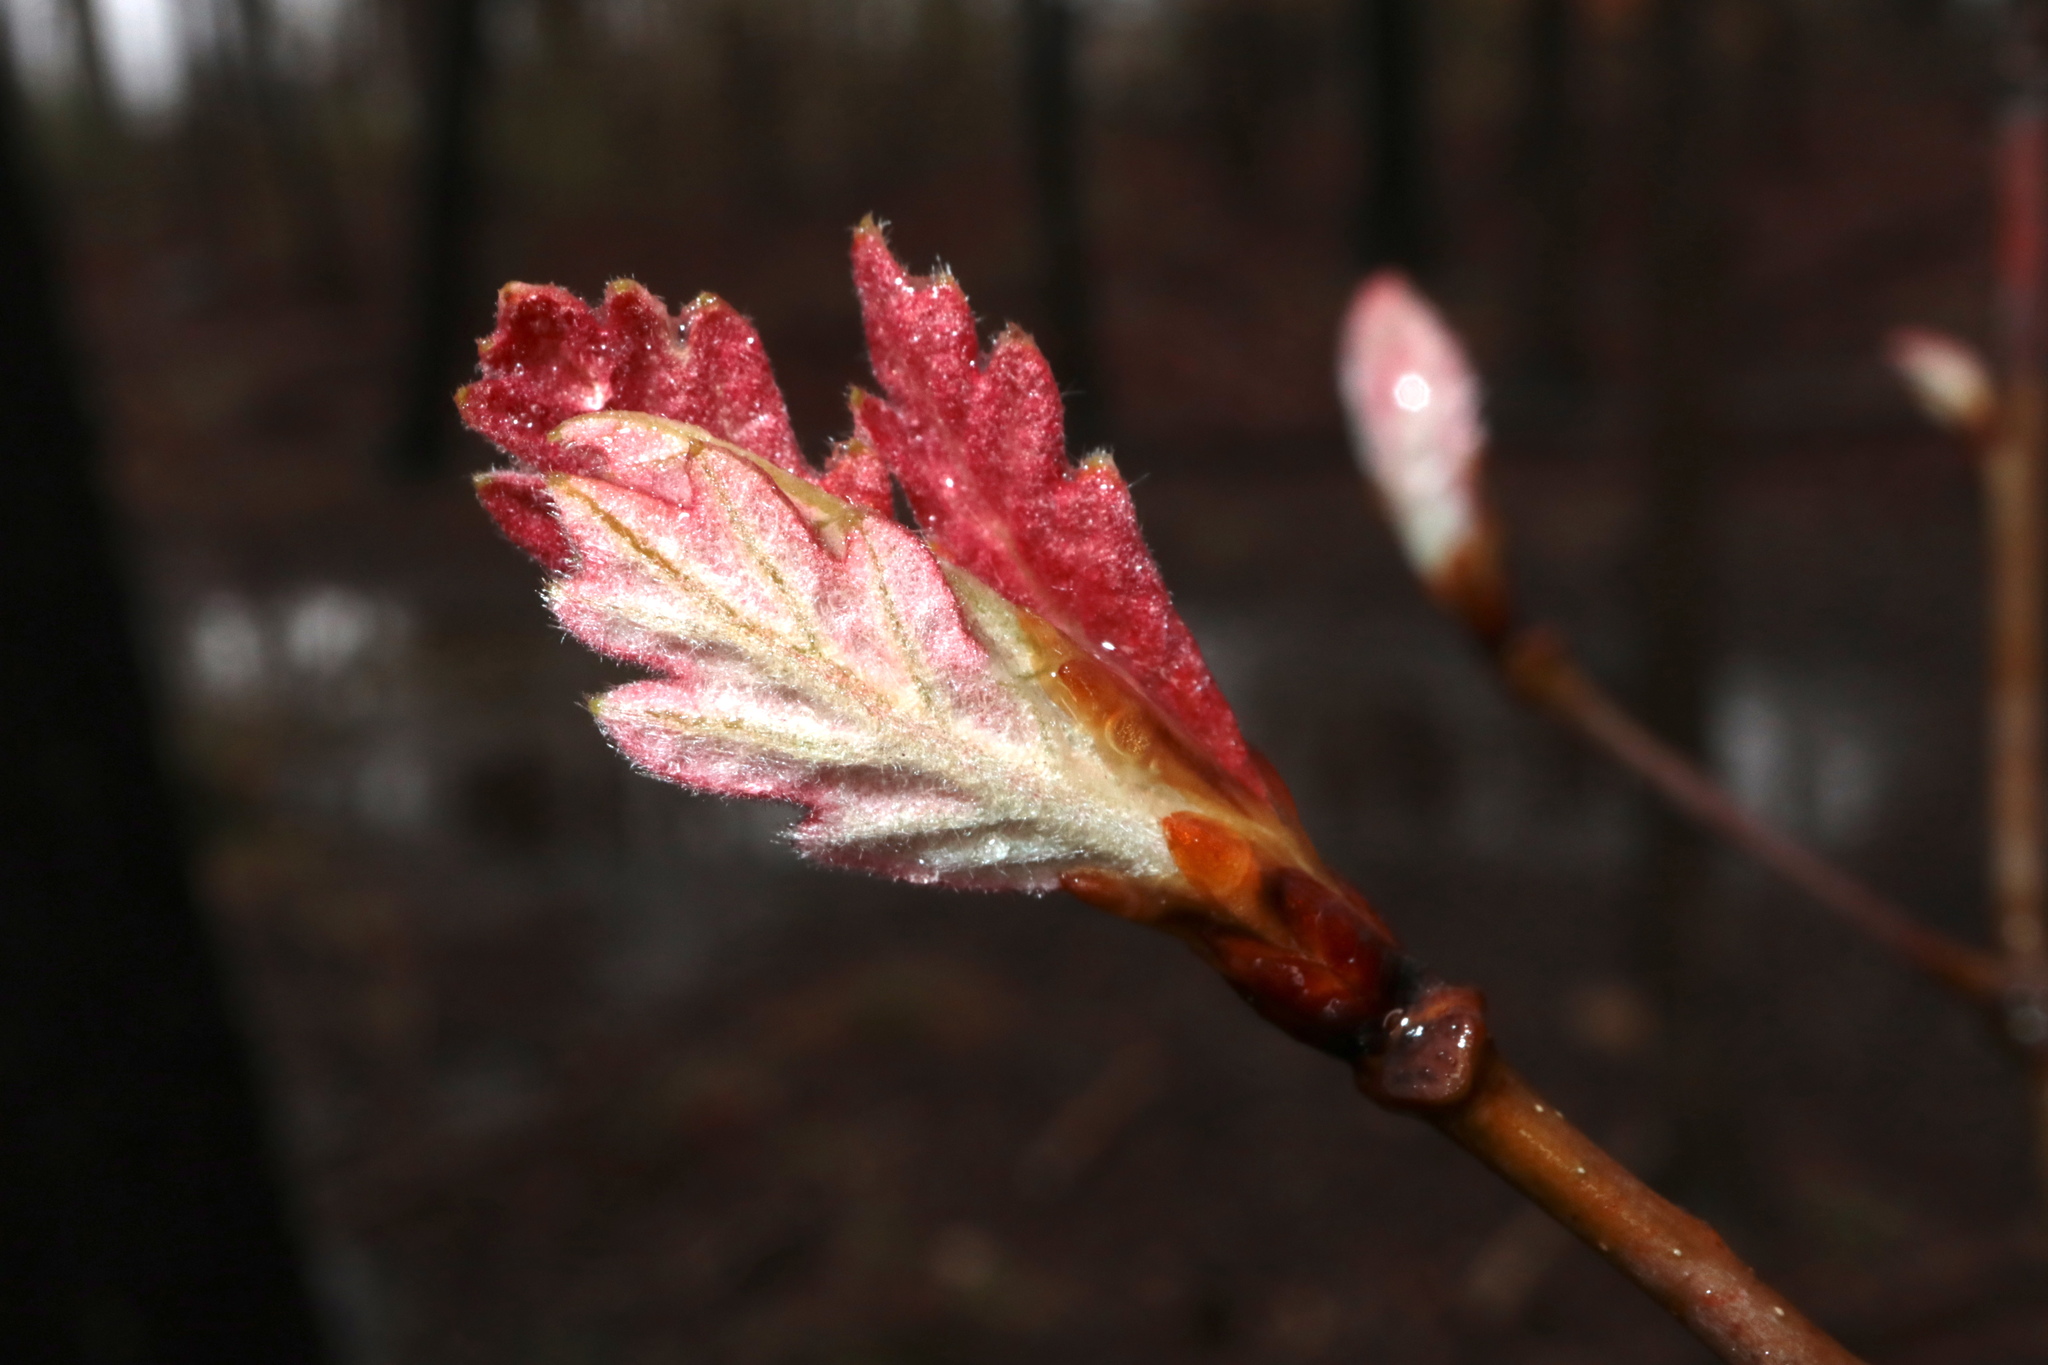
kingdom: Plantae
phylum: Tracheophyta
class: Magnoliopsida
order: Fagales
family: Fagaceae
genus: Quercus
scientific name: Quercus alba
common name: White oak
